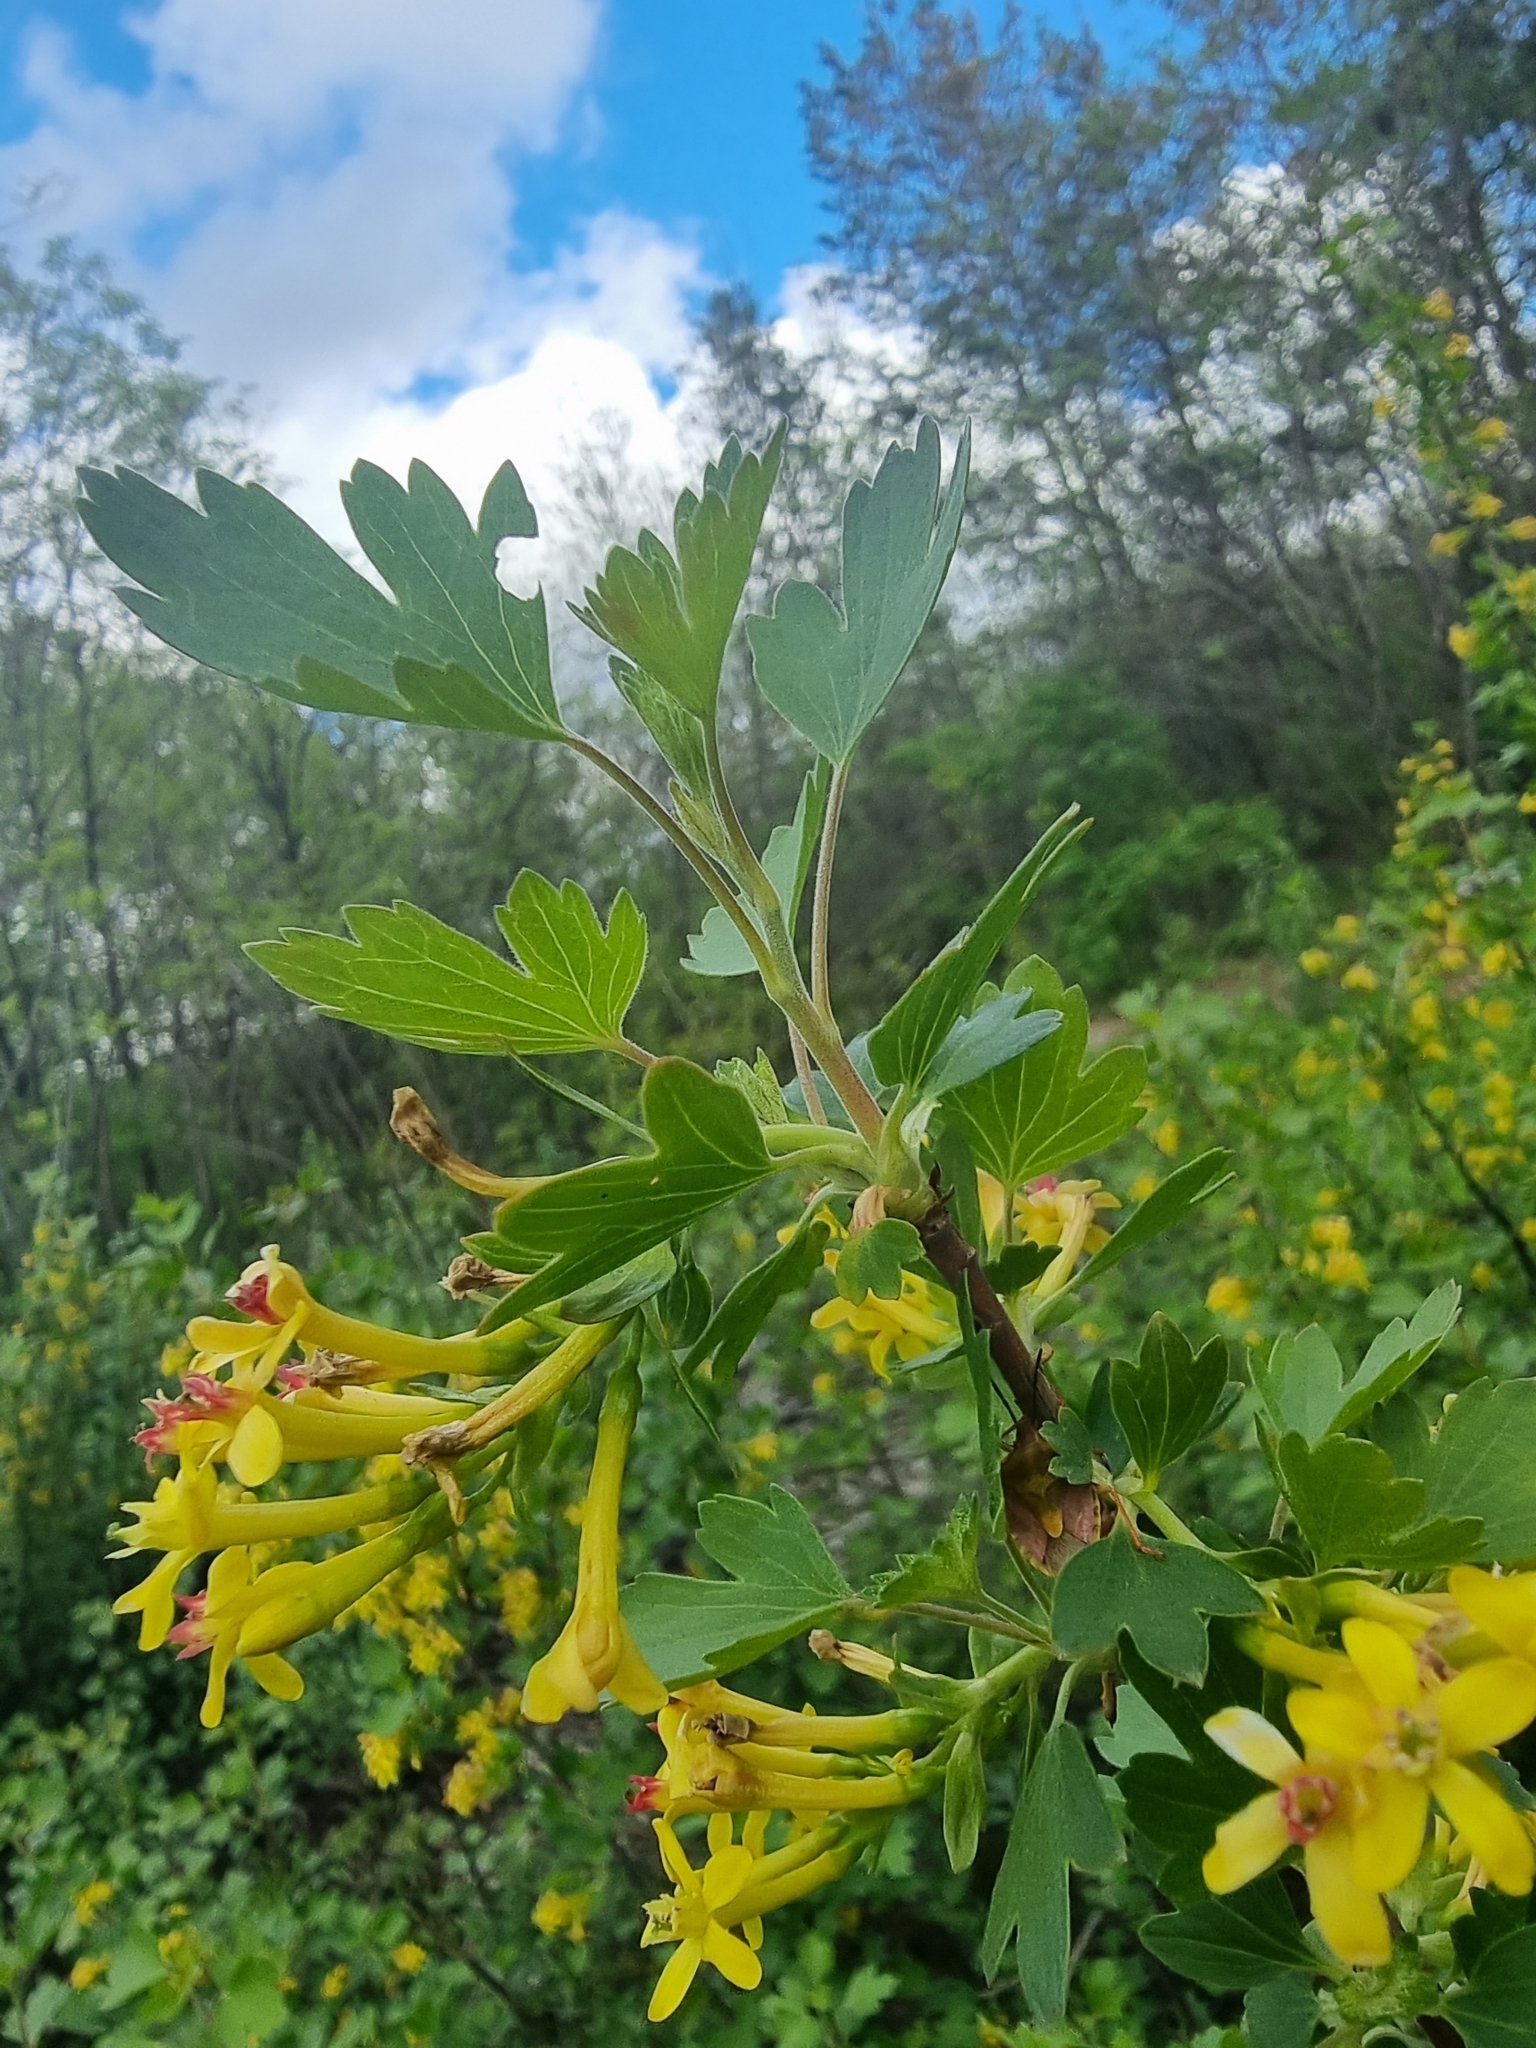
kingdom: Plantae
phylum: Tracheophyta
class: Magnoliopsida
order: Saxifragales
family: Grossulariaceae
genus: Ribes
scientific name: Ribes aureum
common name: Golden currant
